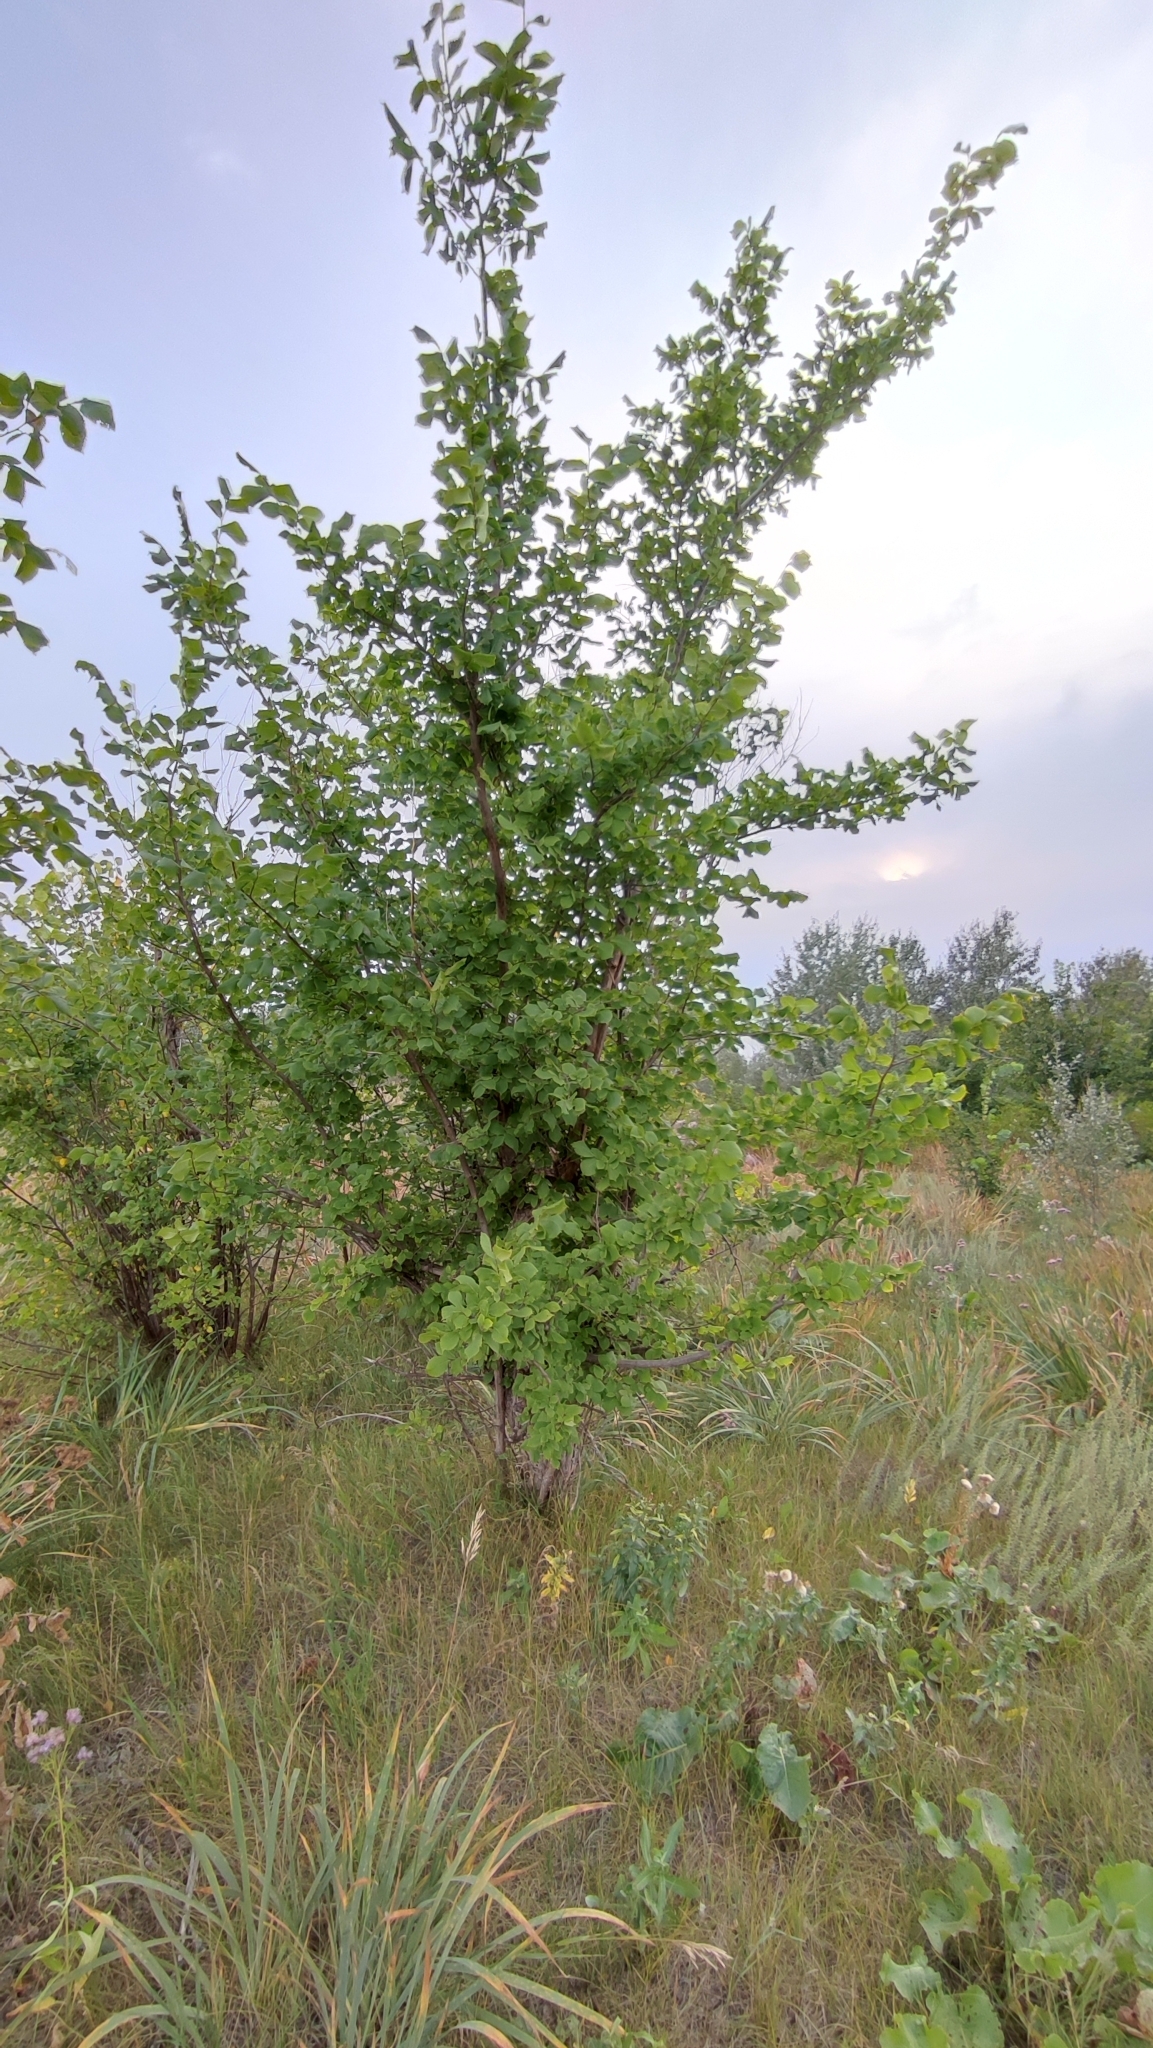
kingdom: Plantae
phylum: Tracheophyta
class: Magnoliopsida
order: Rosales
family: Ulmaceae
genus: Ulmus
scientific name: Ulmus laevis
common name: European white-elm
